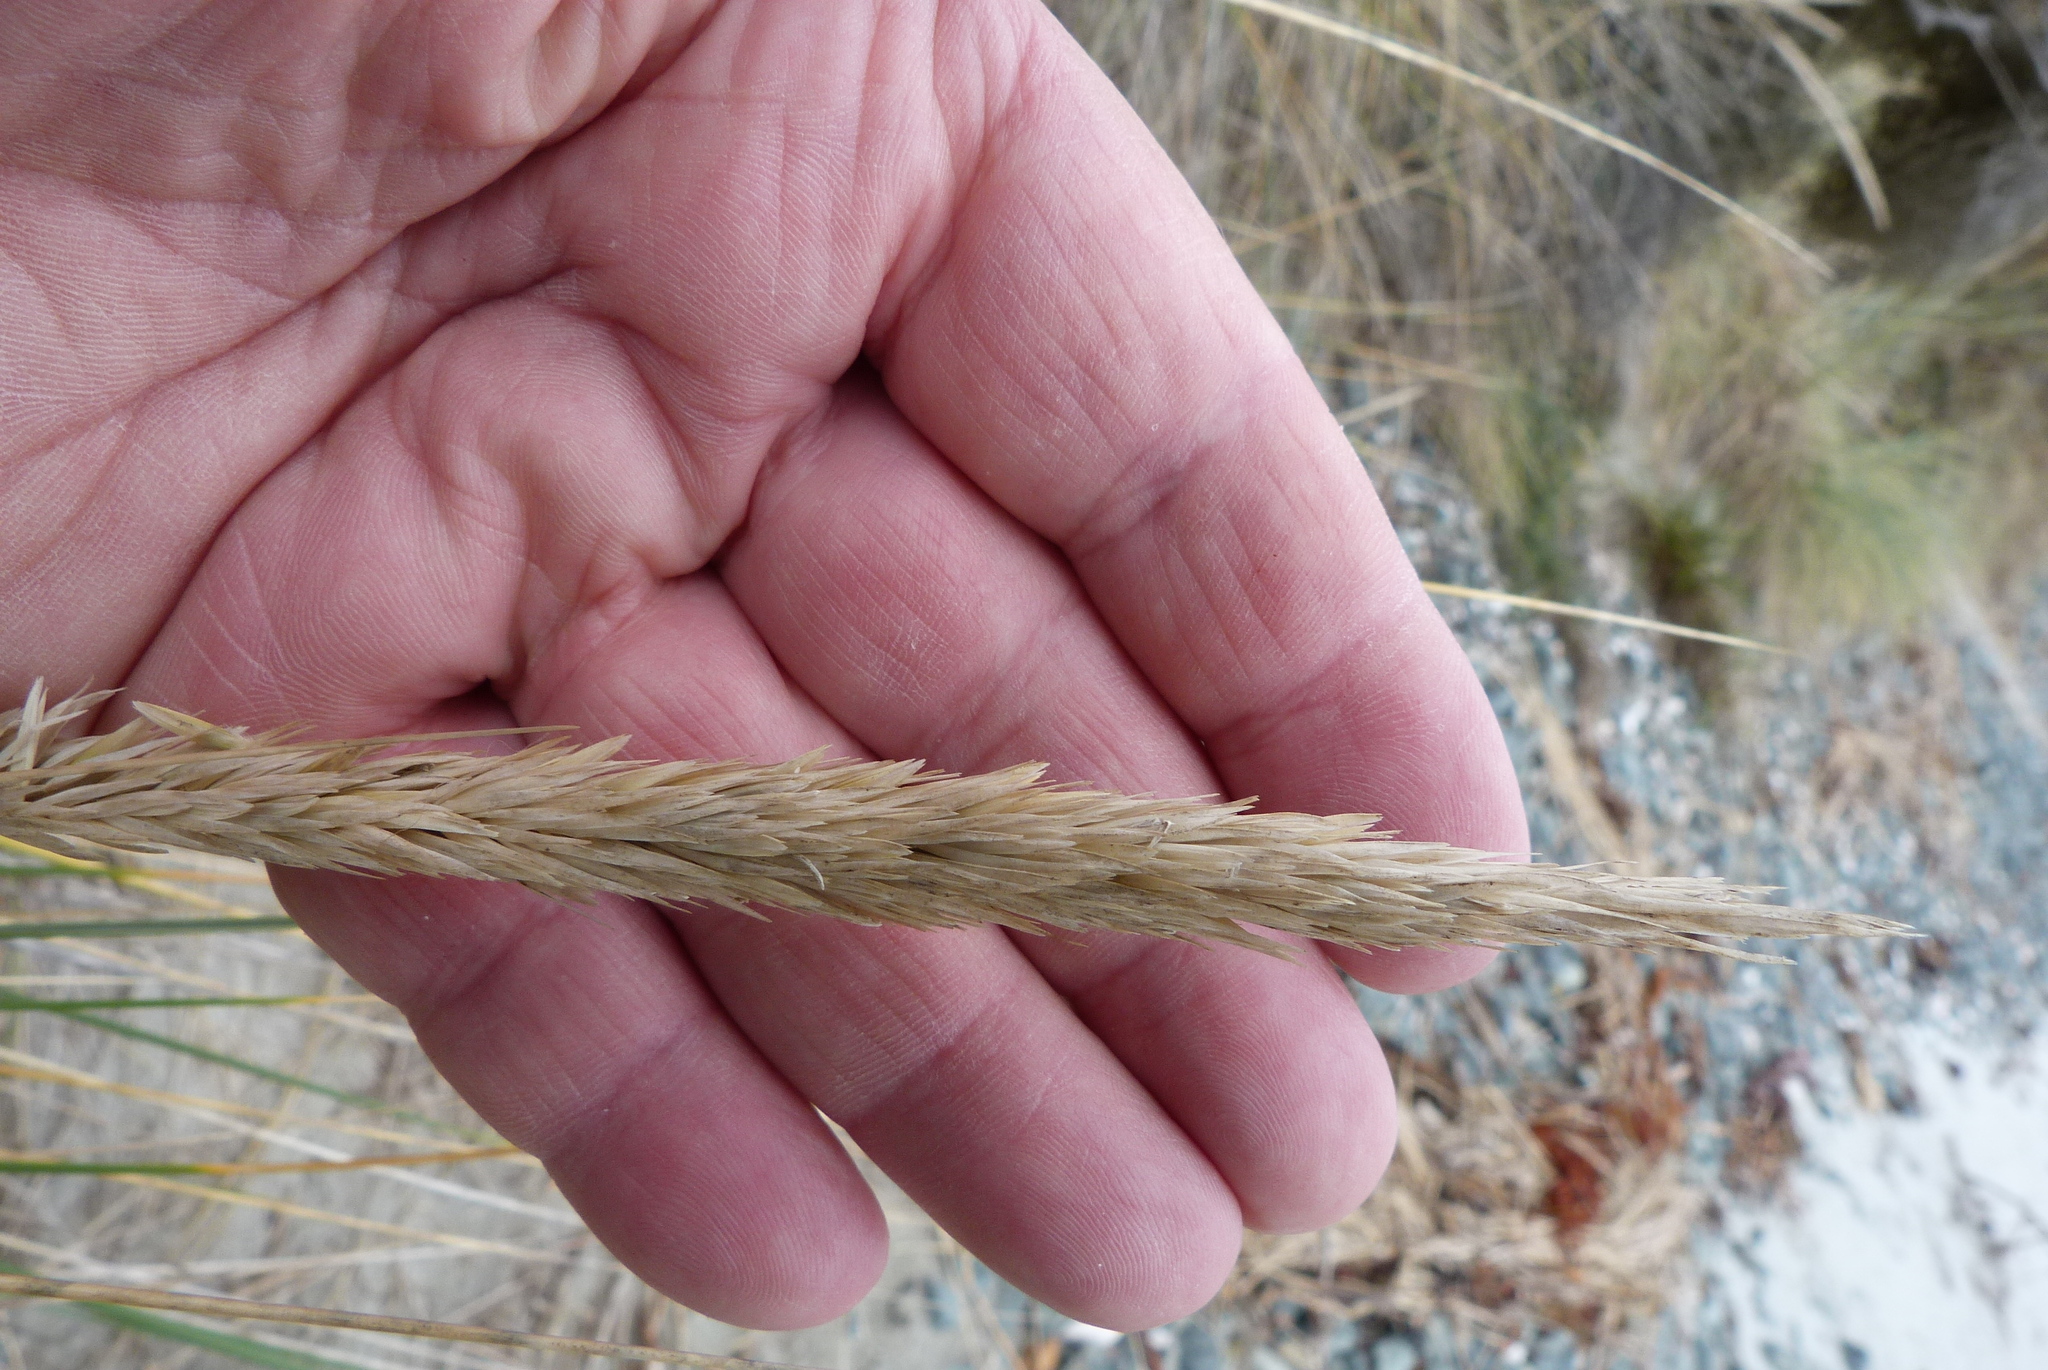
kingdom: Plantae
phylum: Tracheophyta
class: Liliopsida
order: Poales
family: Poaceae
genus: Calamagrostis
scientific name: Calamagrostis arenaria
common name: European beachgrass
